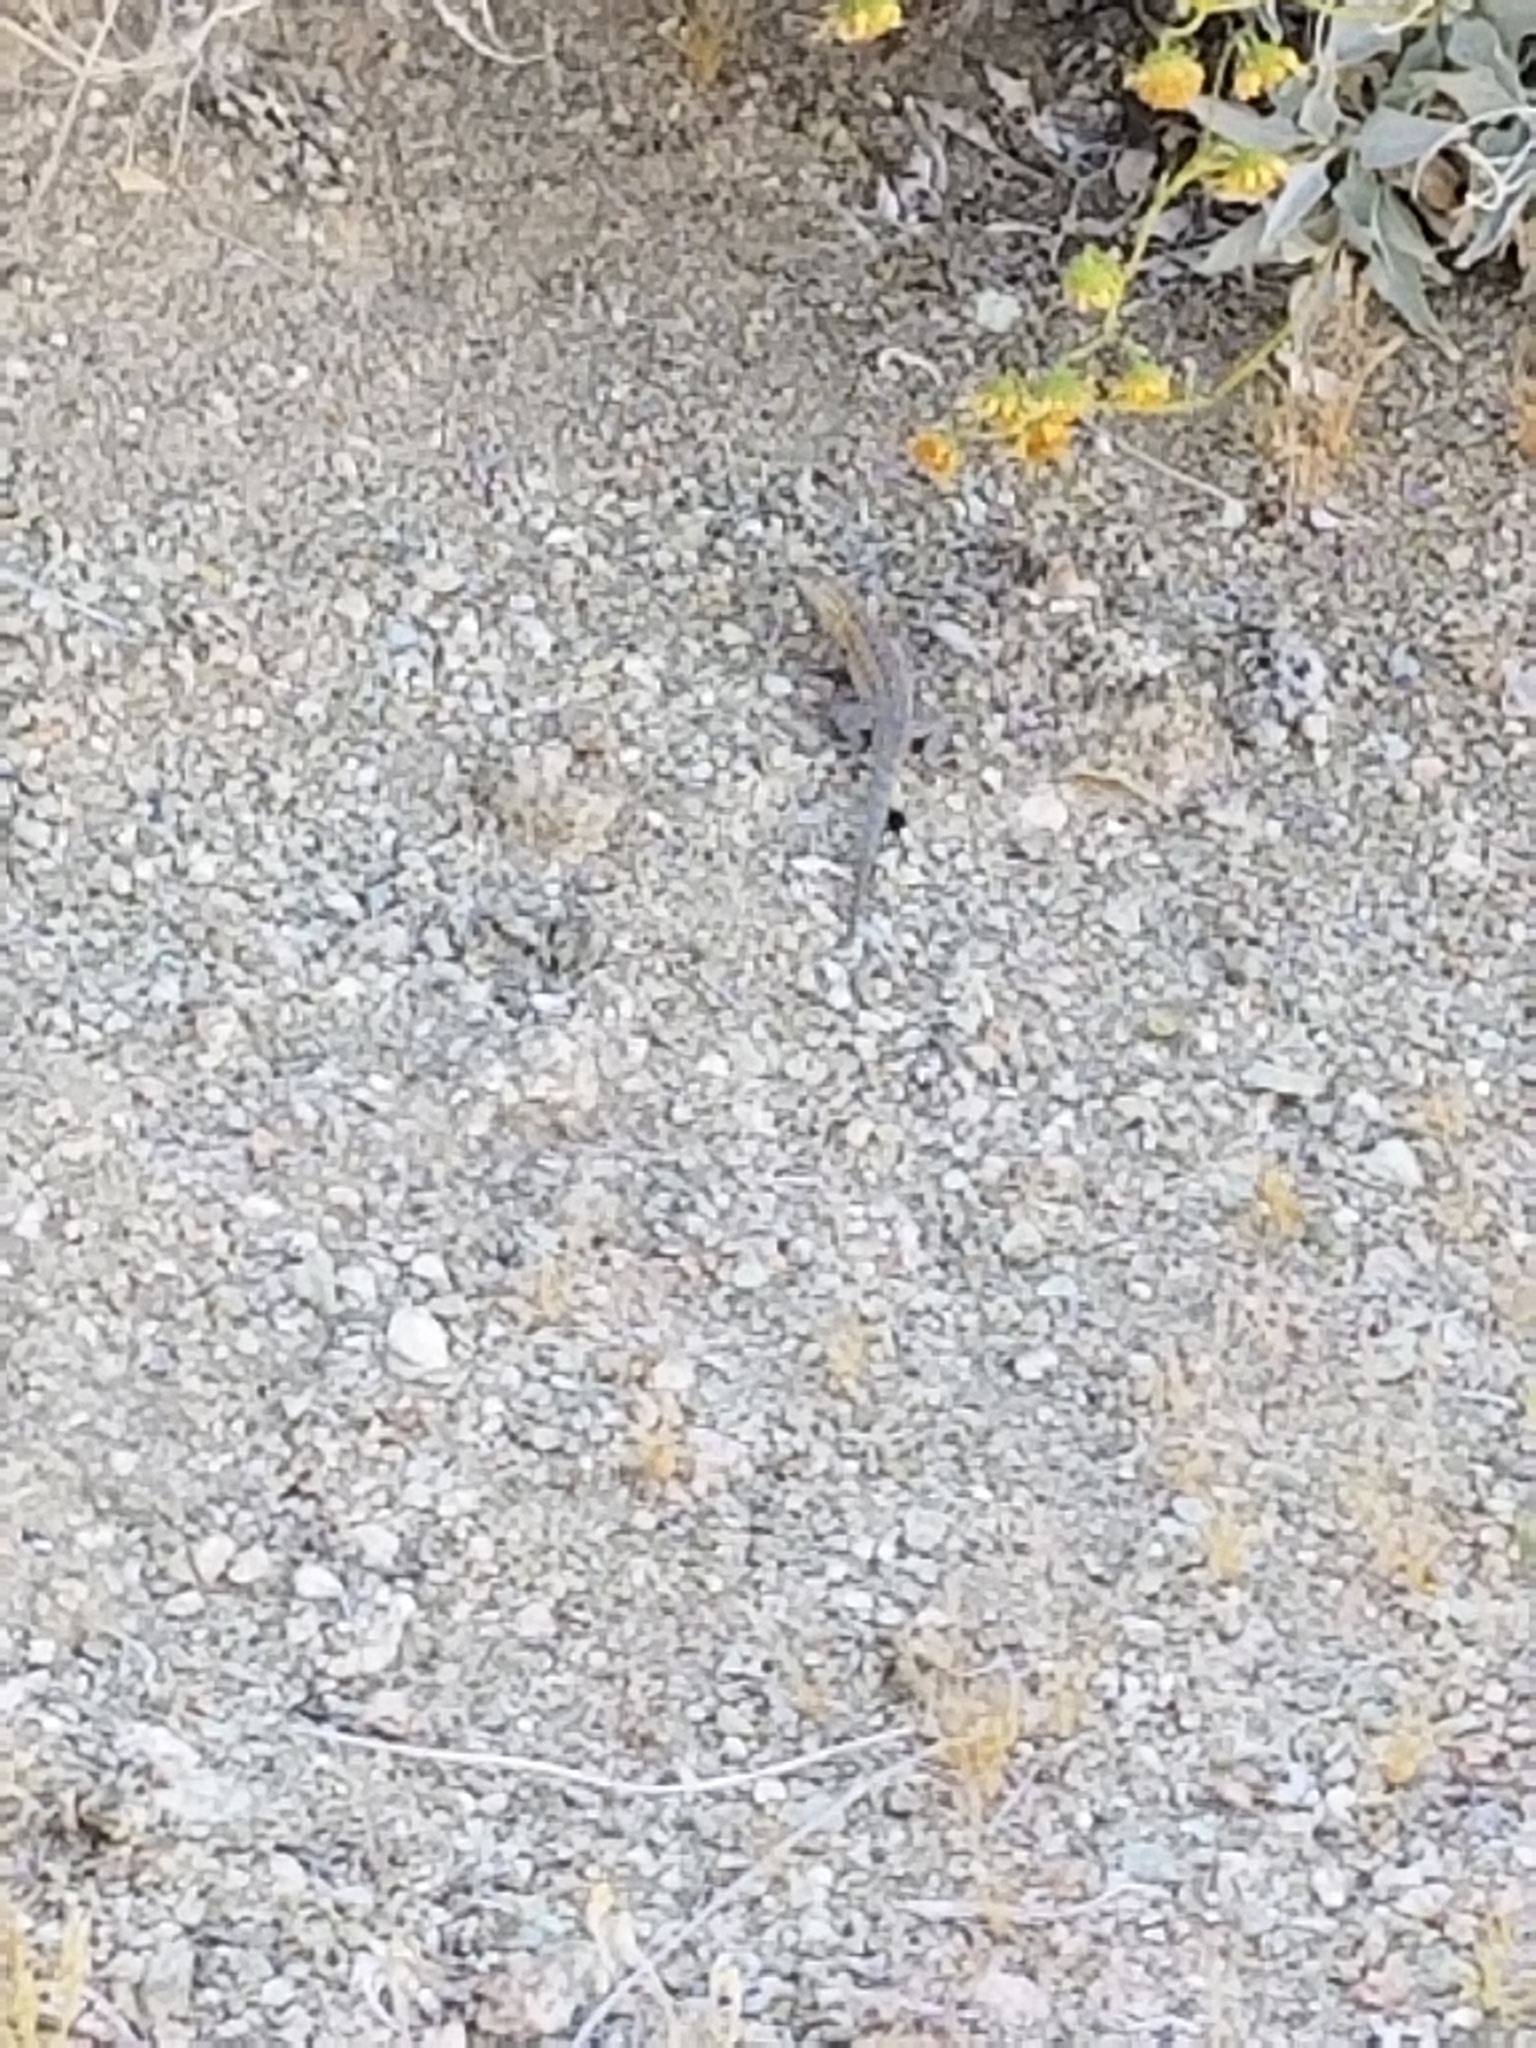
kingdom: Animalia
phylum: Chordata
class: Squamata
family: Phrynosomatidae
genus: Uta
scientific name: Uta stansburiana
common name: Side-blotched lizard
